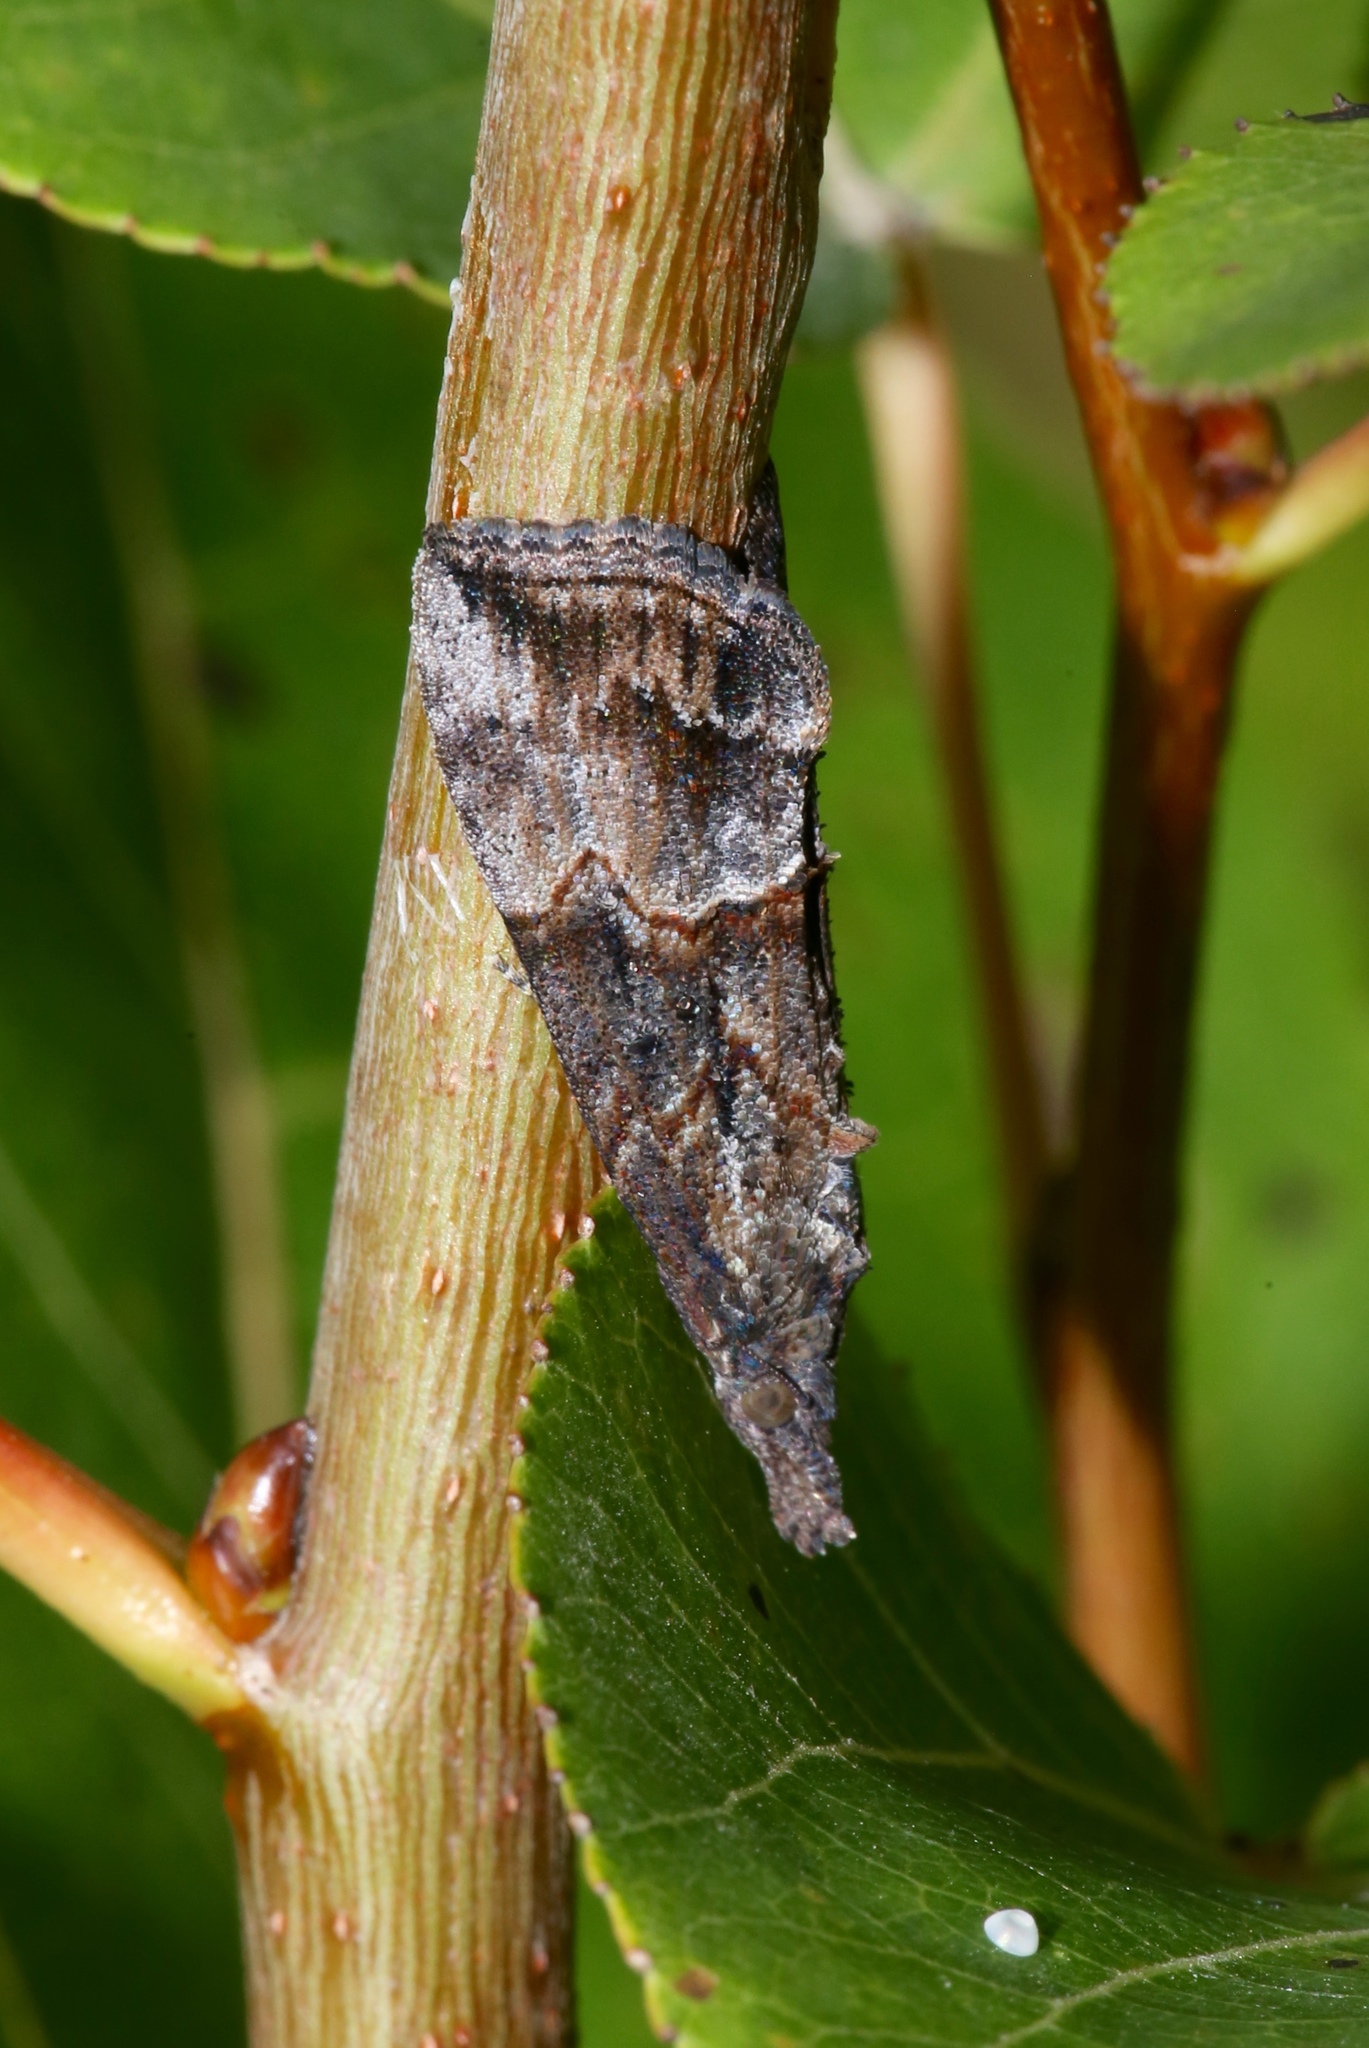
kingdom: Animalia
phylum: Arthropoda
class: Insecta
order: Lepidoptera
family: Erebidae
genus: Hypena
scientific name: Hypena scabra
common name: Green cloverworm
